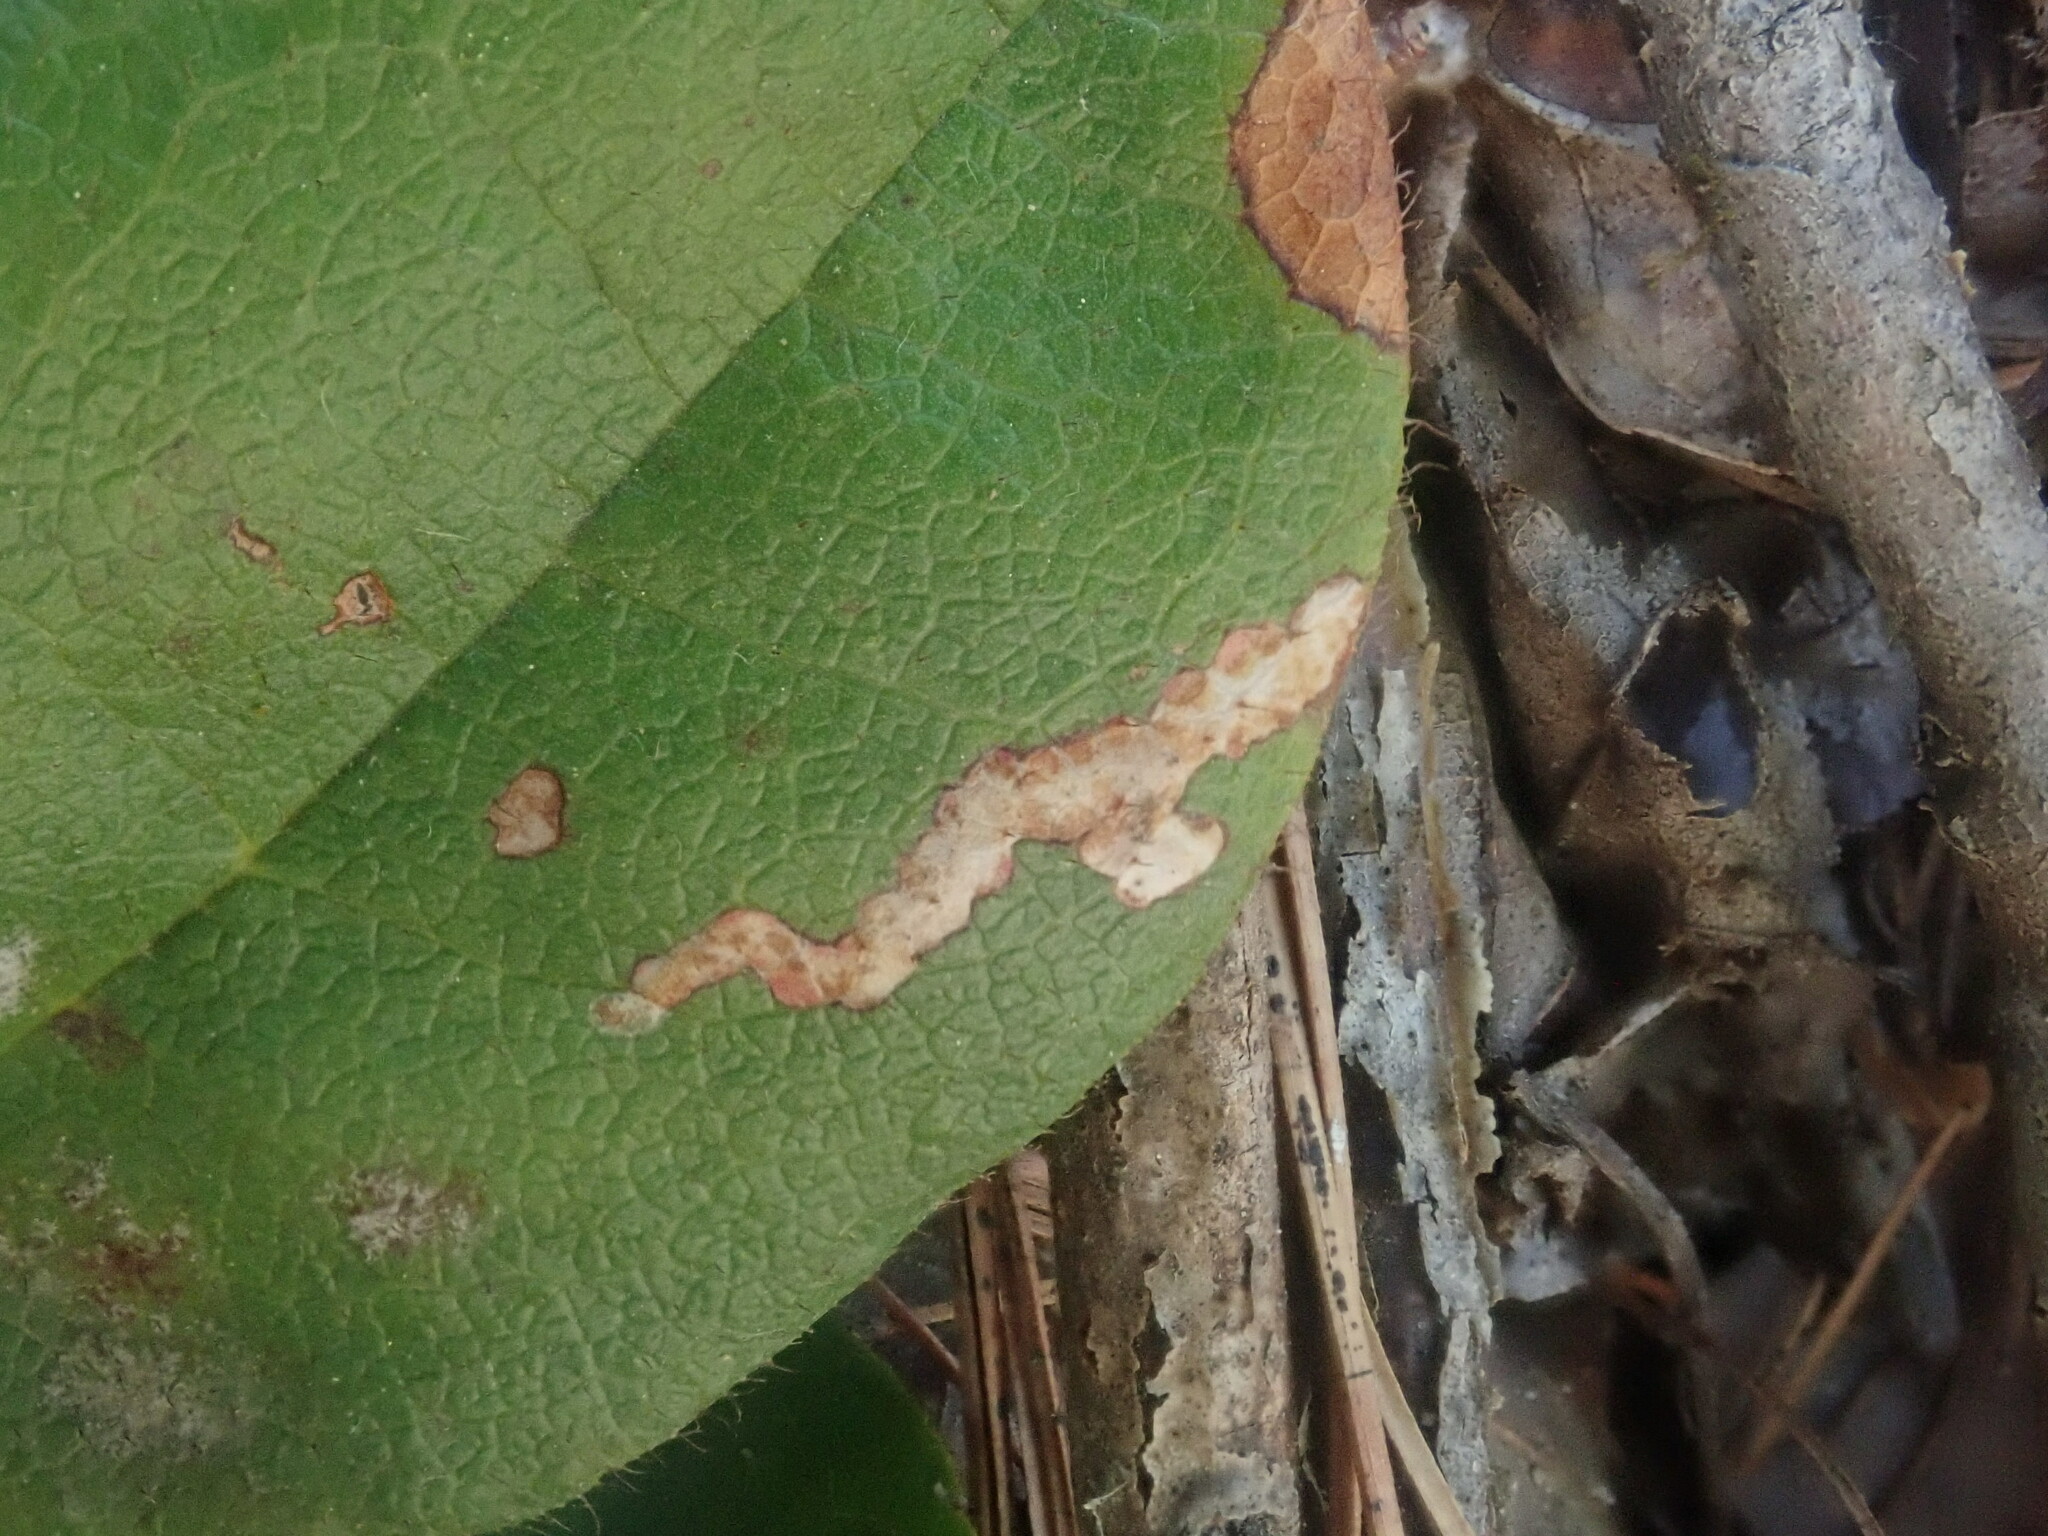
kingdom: Animalia
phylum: Arthropoda
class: Insecta
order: Coleoptera
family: Buprestidae
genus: Brachys
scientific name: Brachys
